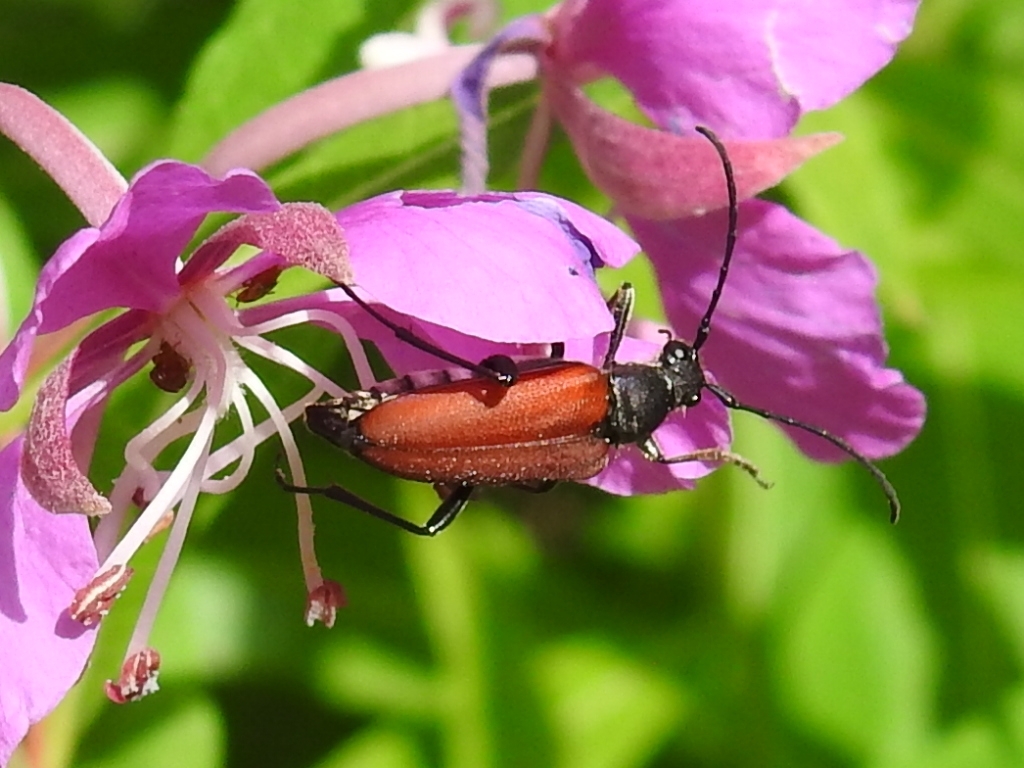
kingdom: Animalia
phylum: Arthropoda
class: Insecta
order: Coleoptera
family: Cerambycidae
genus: Anastrangalia
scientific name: Anastrangalia sanguinolenta
